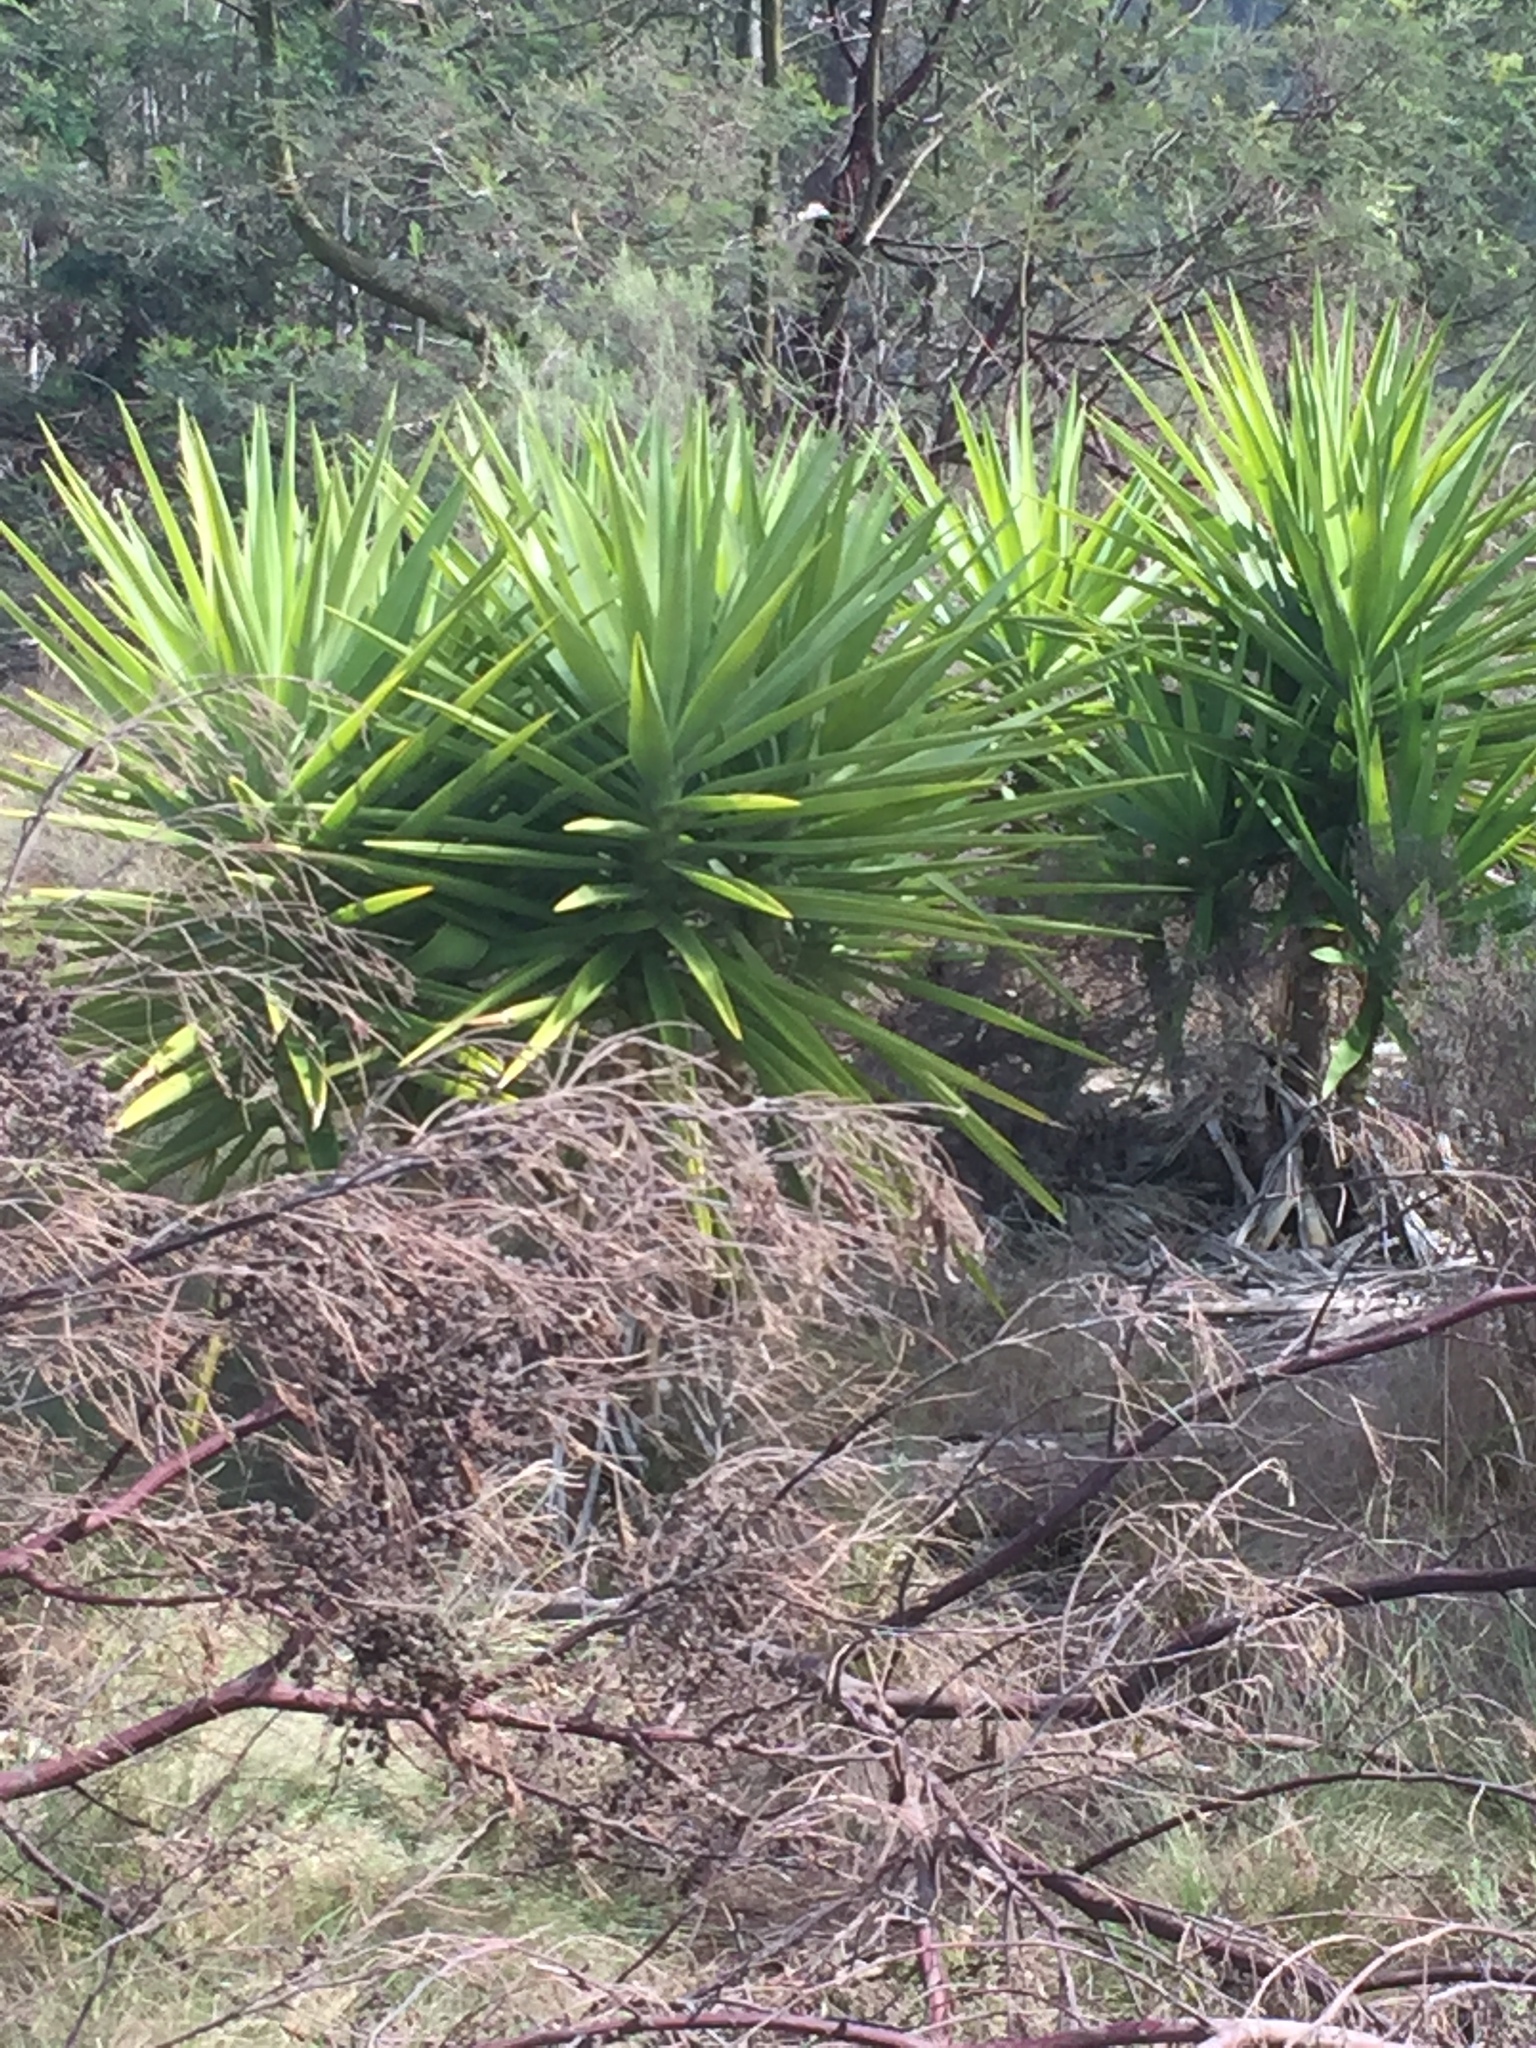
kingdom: Plantae
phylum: Tracheophyta
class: Liliopsida
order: Asparagales
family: Asparagaceae
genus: Yucca
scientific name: Yucca gigantea
